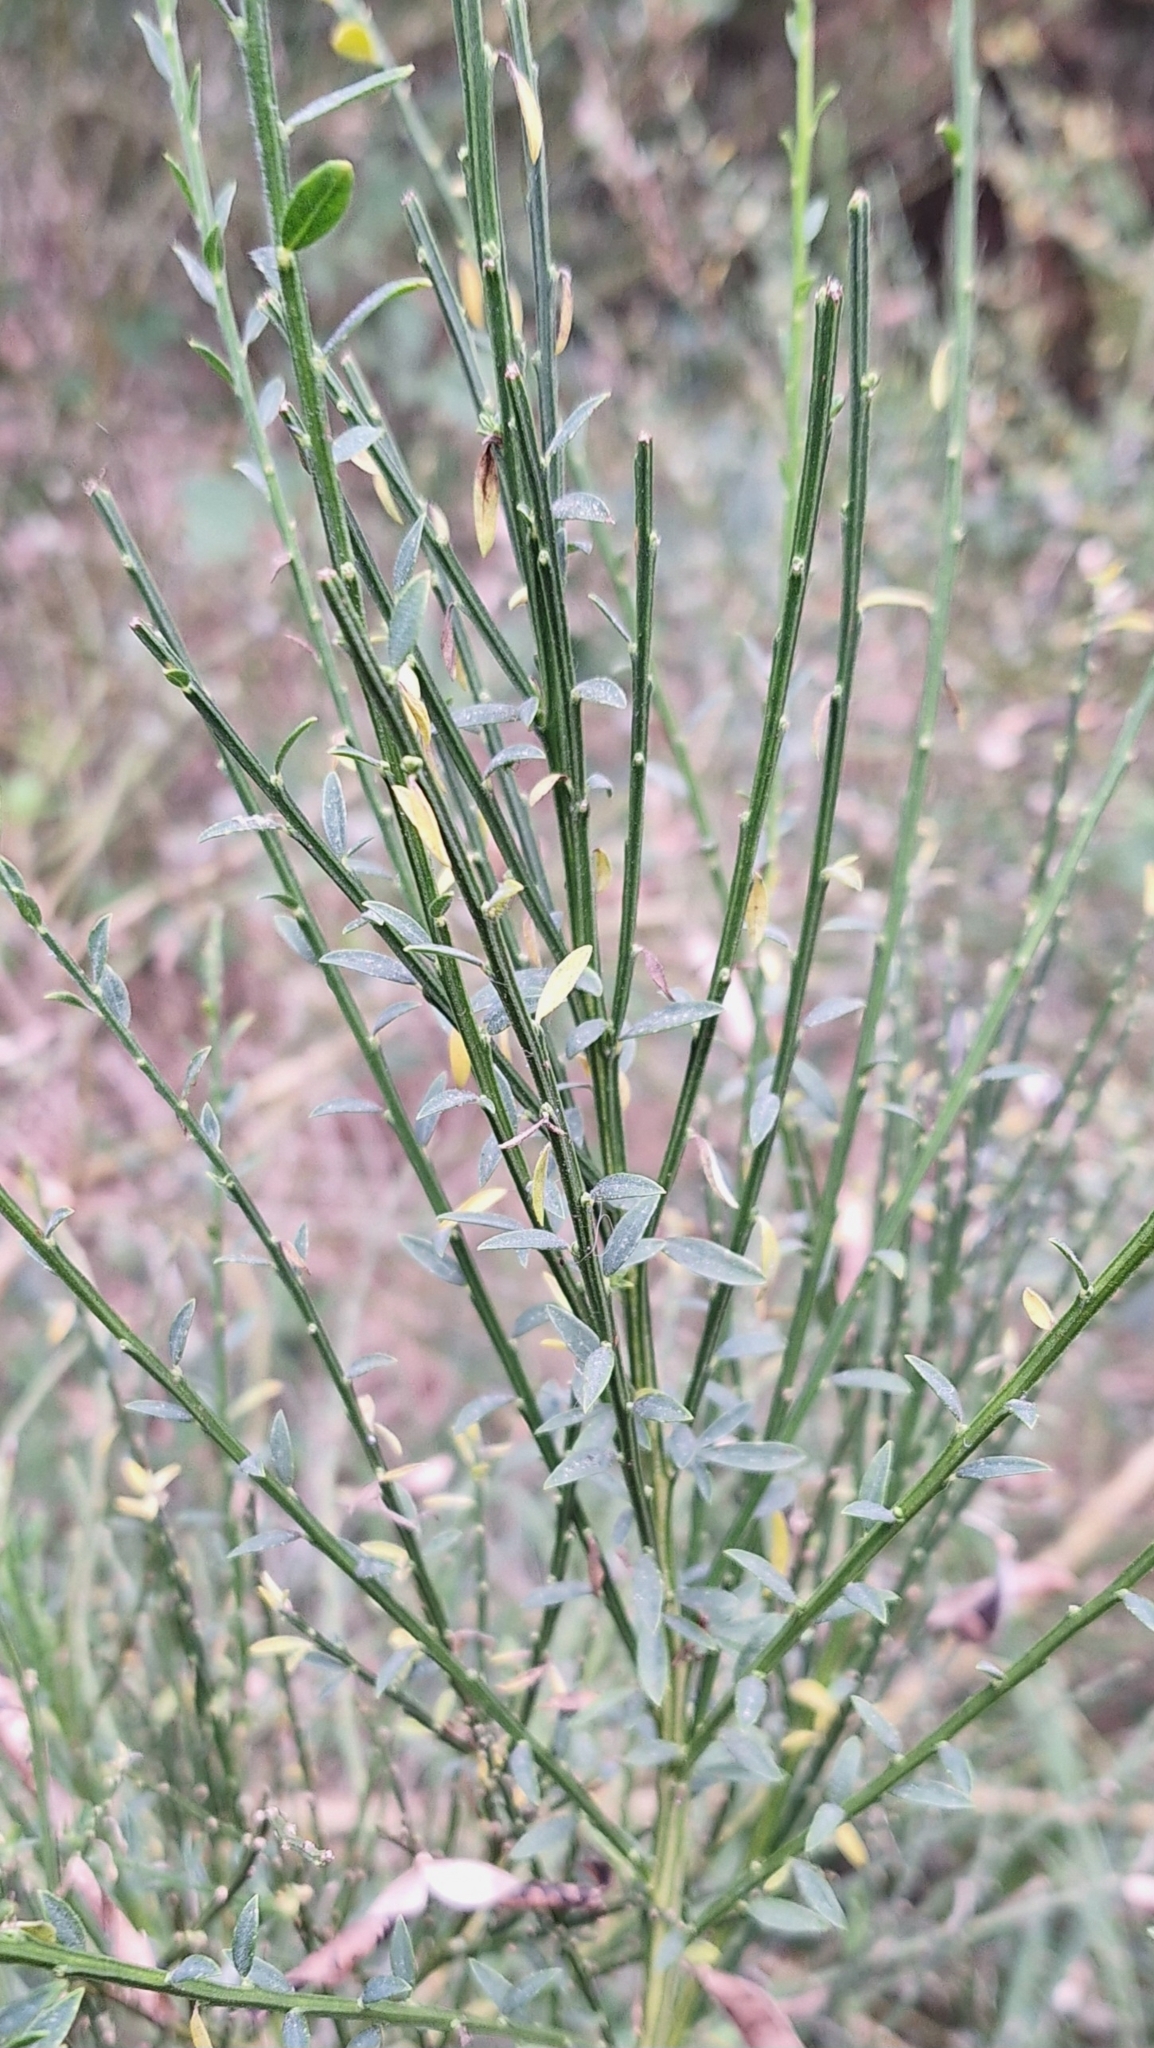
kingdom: Plantae
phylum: Tracheophyta
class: Magnoliopsida
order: Fabales
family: Fabaceae
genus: Cytisus
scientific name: Cytisus scoparius
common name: Scotch broom
